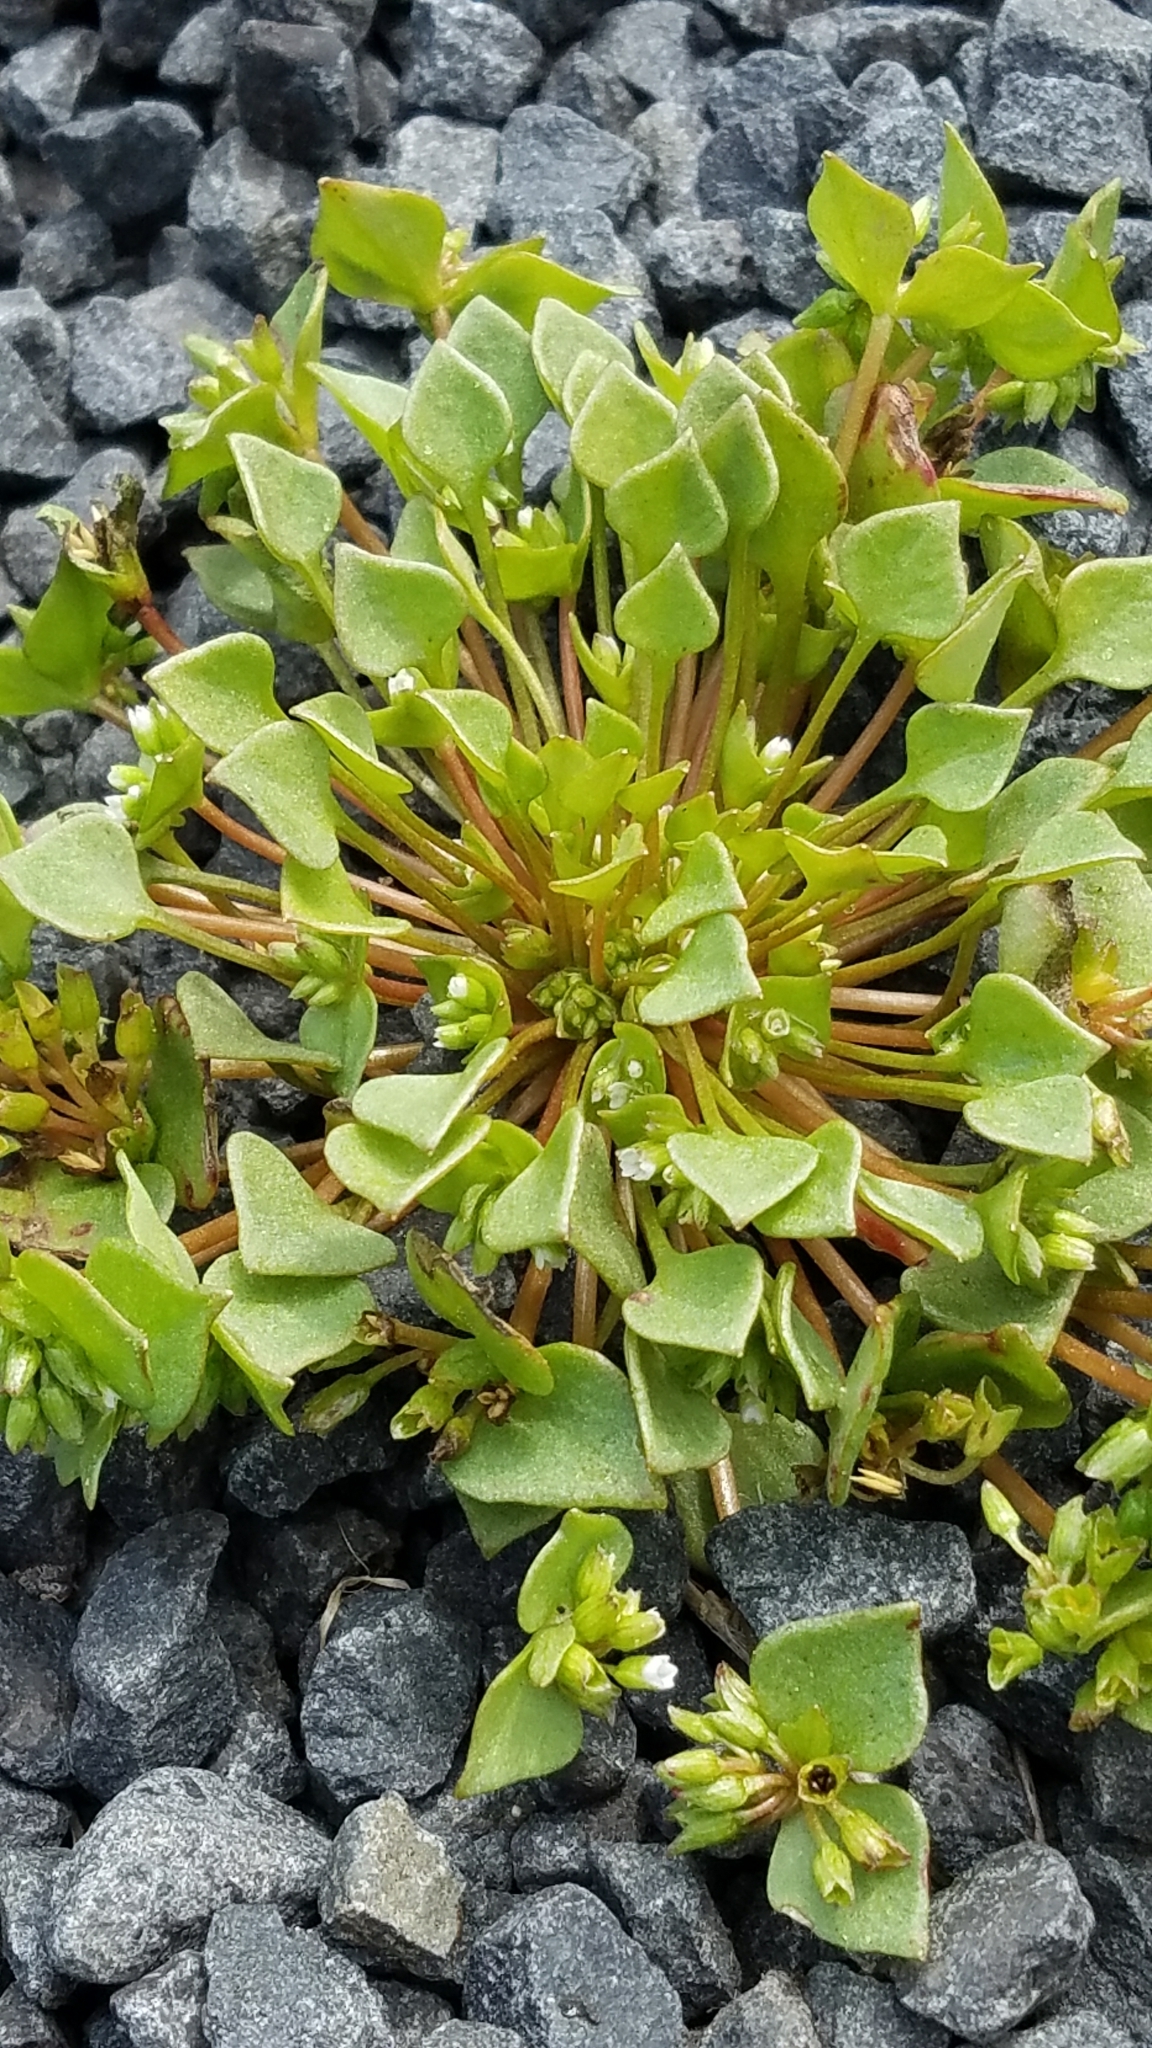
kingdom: Plantae
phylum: Tracheophyta
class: Magnoliopsida
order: Caryophyllales
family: Montiaceae
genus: Claytonia
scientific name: Claytonia rubra
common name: Erubescent miner's-lettuce
